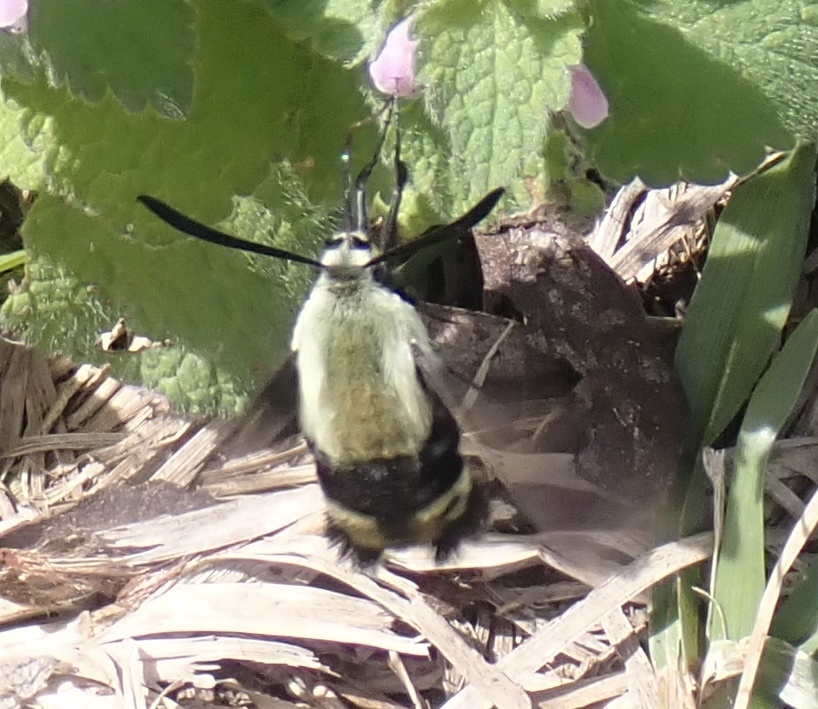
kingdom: Animalia
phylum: Arthropoda
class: Insecta
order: Lepidoptera
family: Sphingidae
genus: Hemaris
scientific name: Hemaris diffinis
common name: Bumblebee moth
